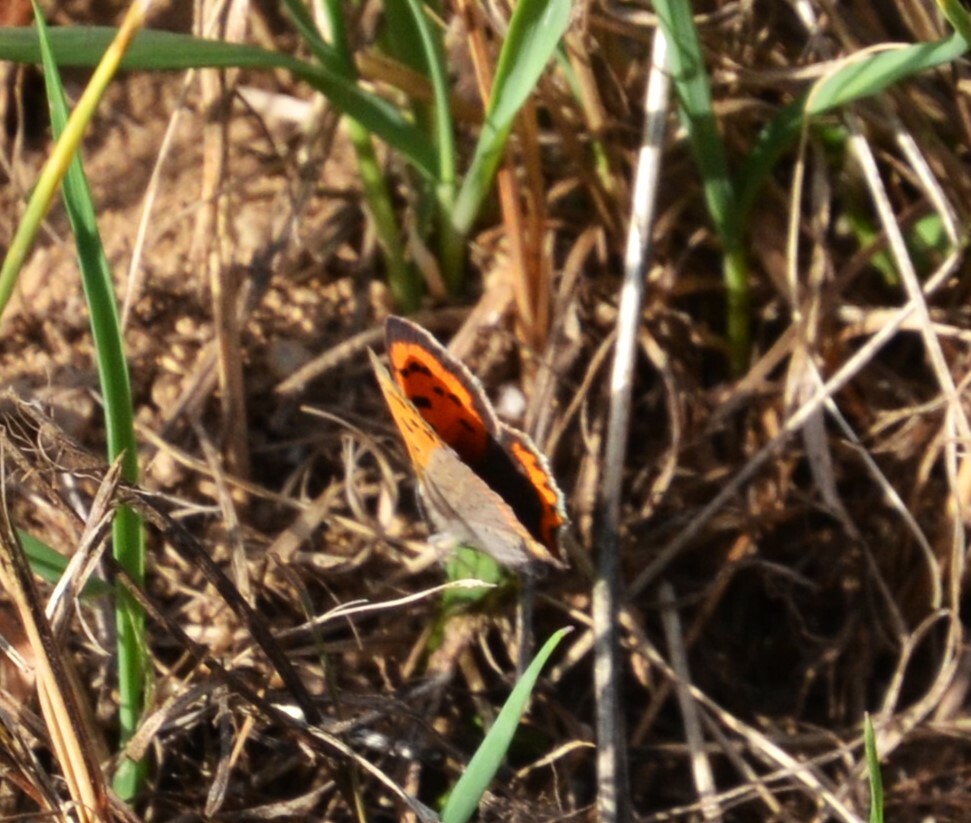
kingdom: Animalia
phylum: Arthropoda
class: Insecta
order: Lepidoptera
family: Lycaenidae
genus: Lycaena
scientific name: Lycaena phlaeas
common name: Small copper
